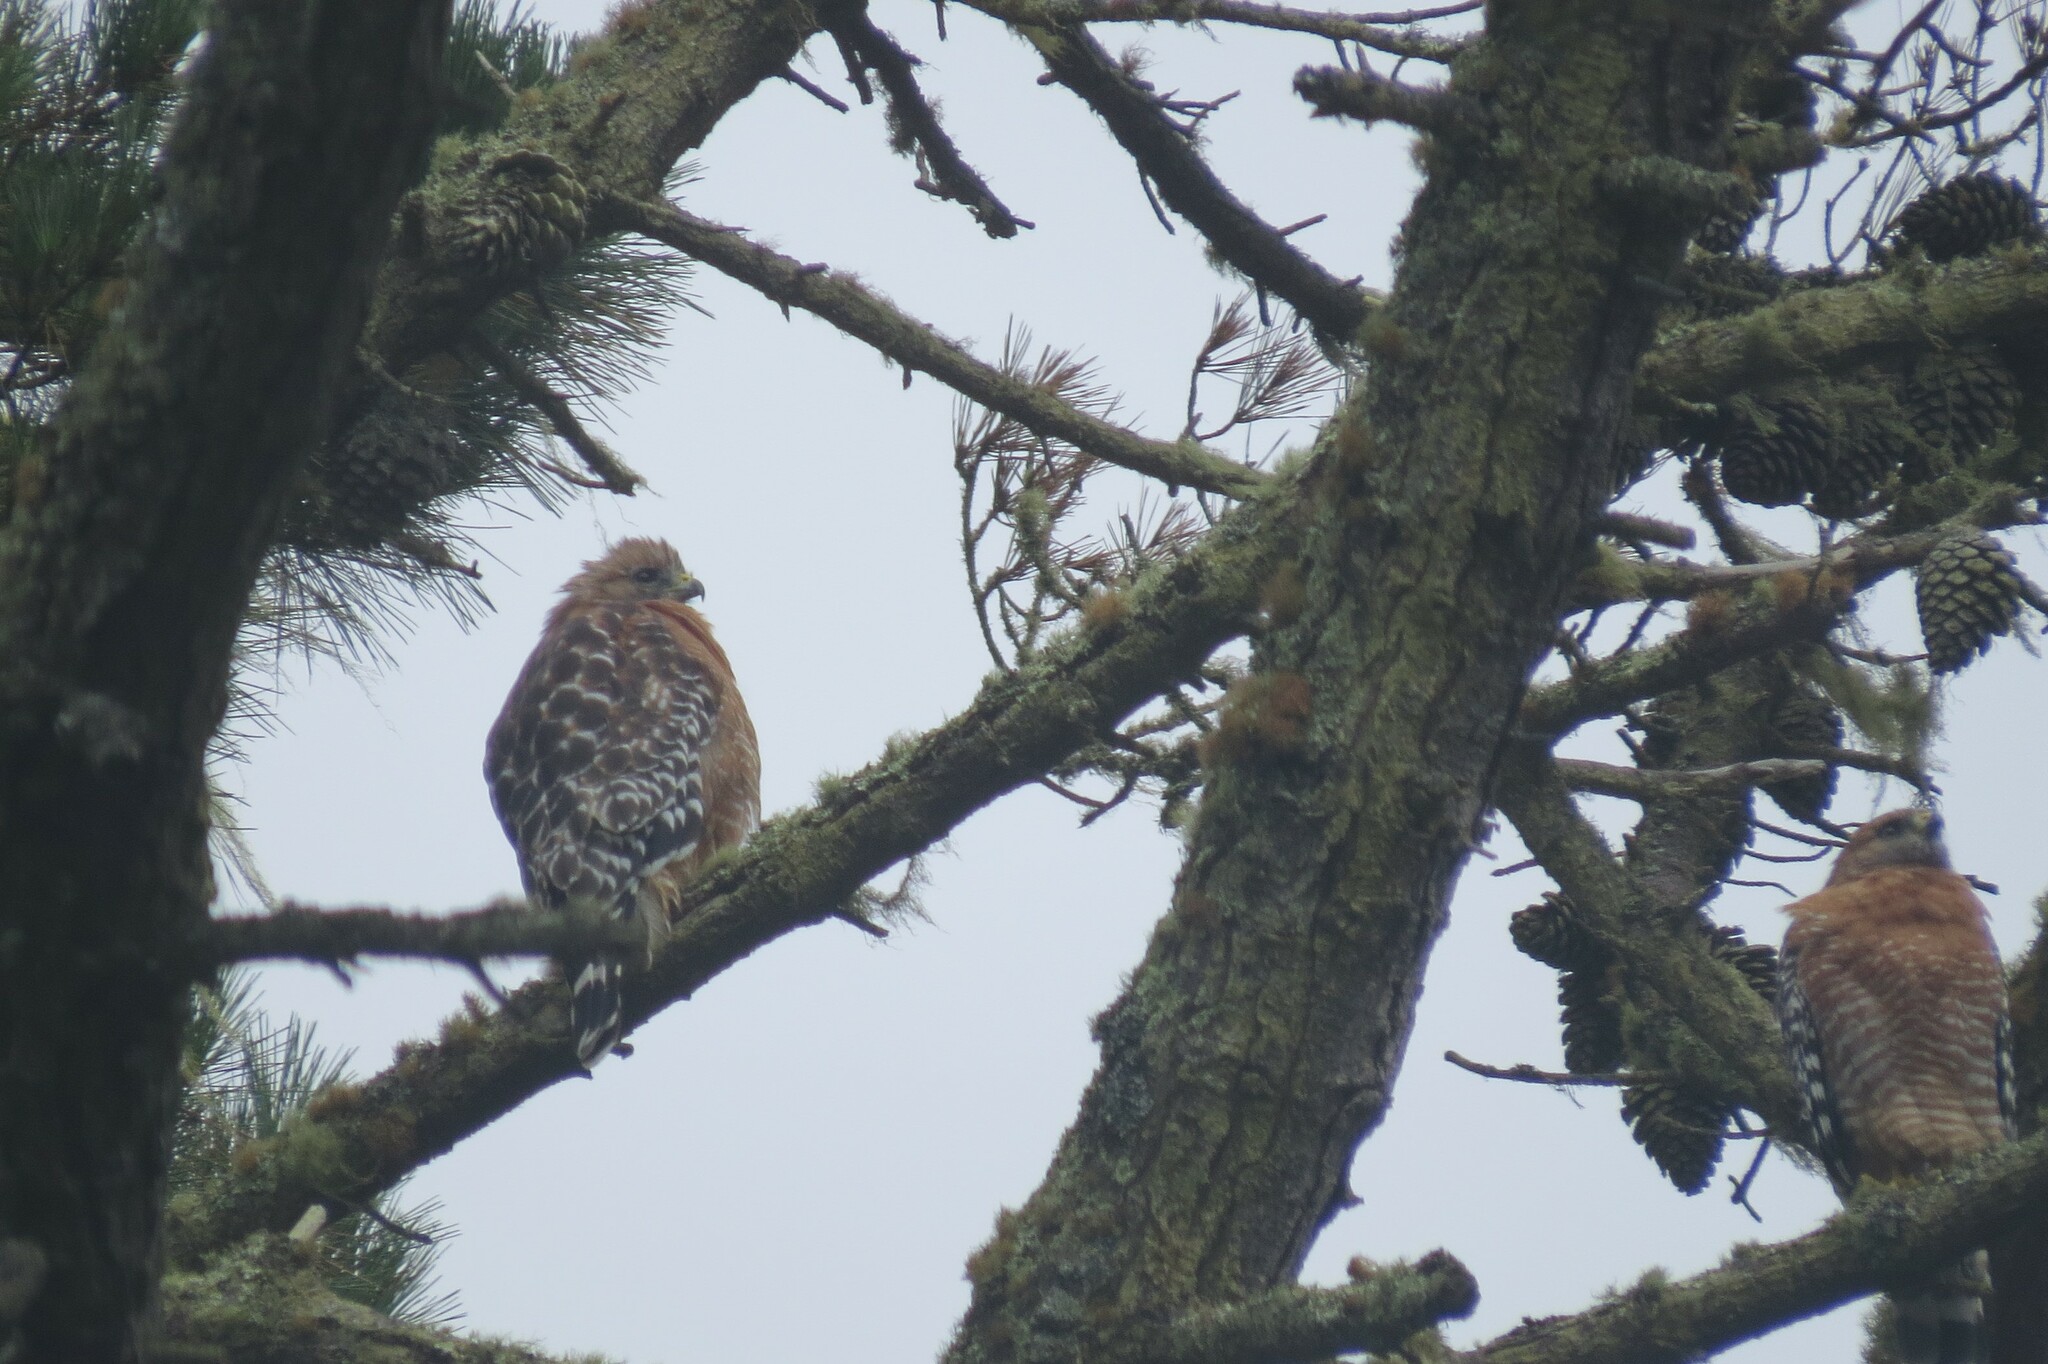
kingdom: Animalia
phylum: Chordata
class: Aves
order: Accipitriformes
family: Accipitridae
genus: Buteo
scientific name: Buteo lineatus
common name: Red-shouldered hawk
